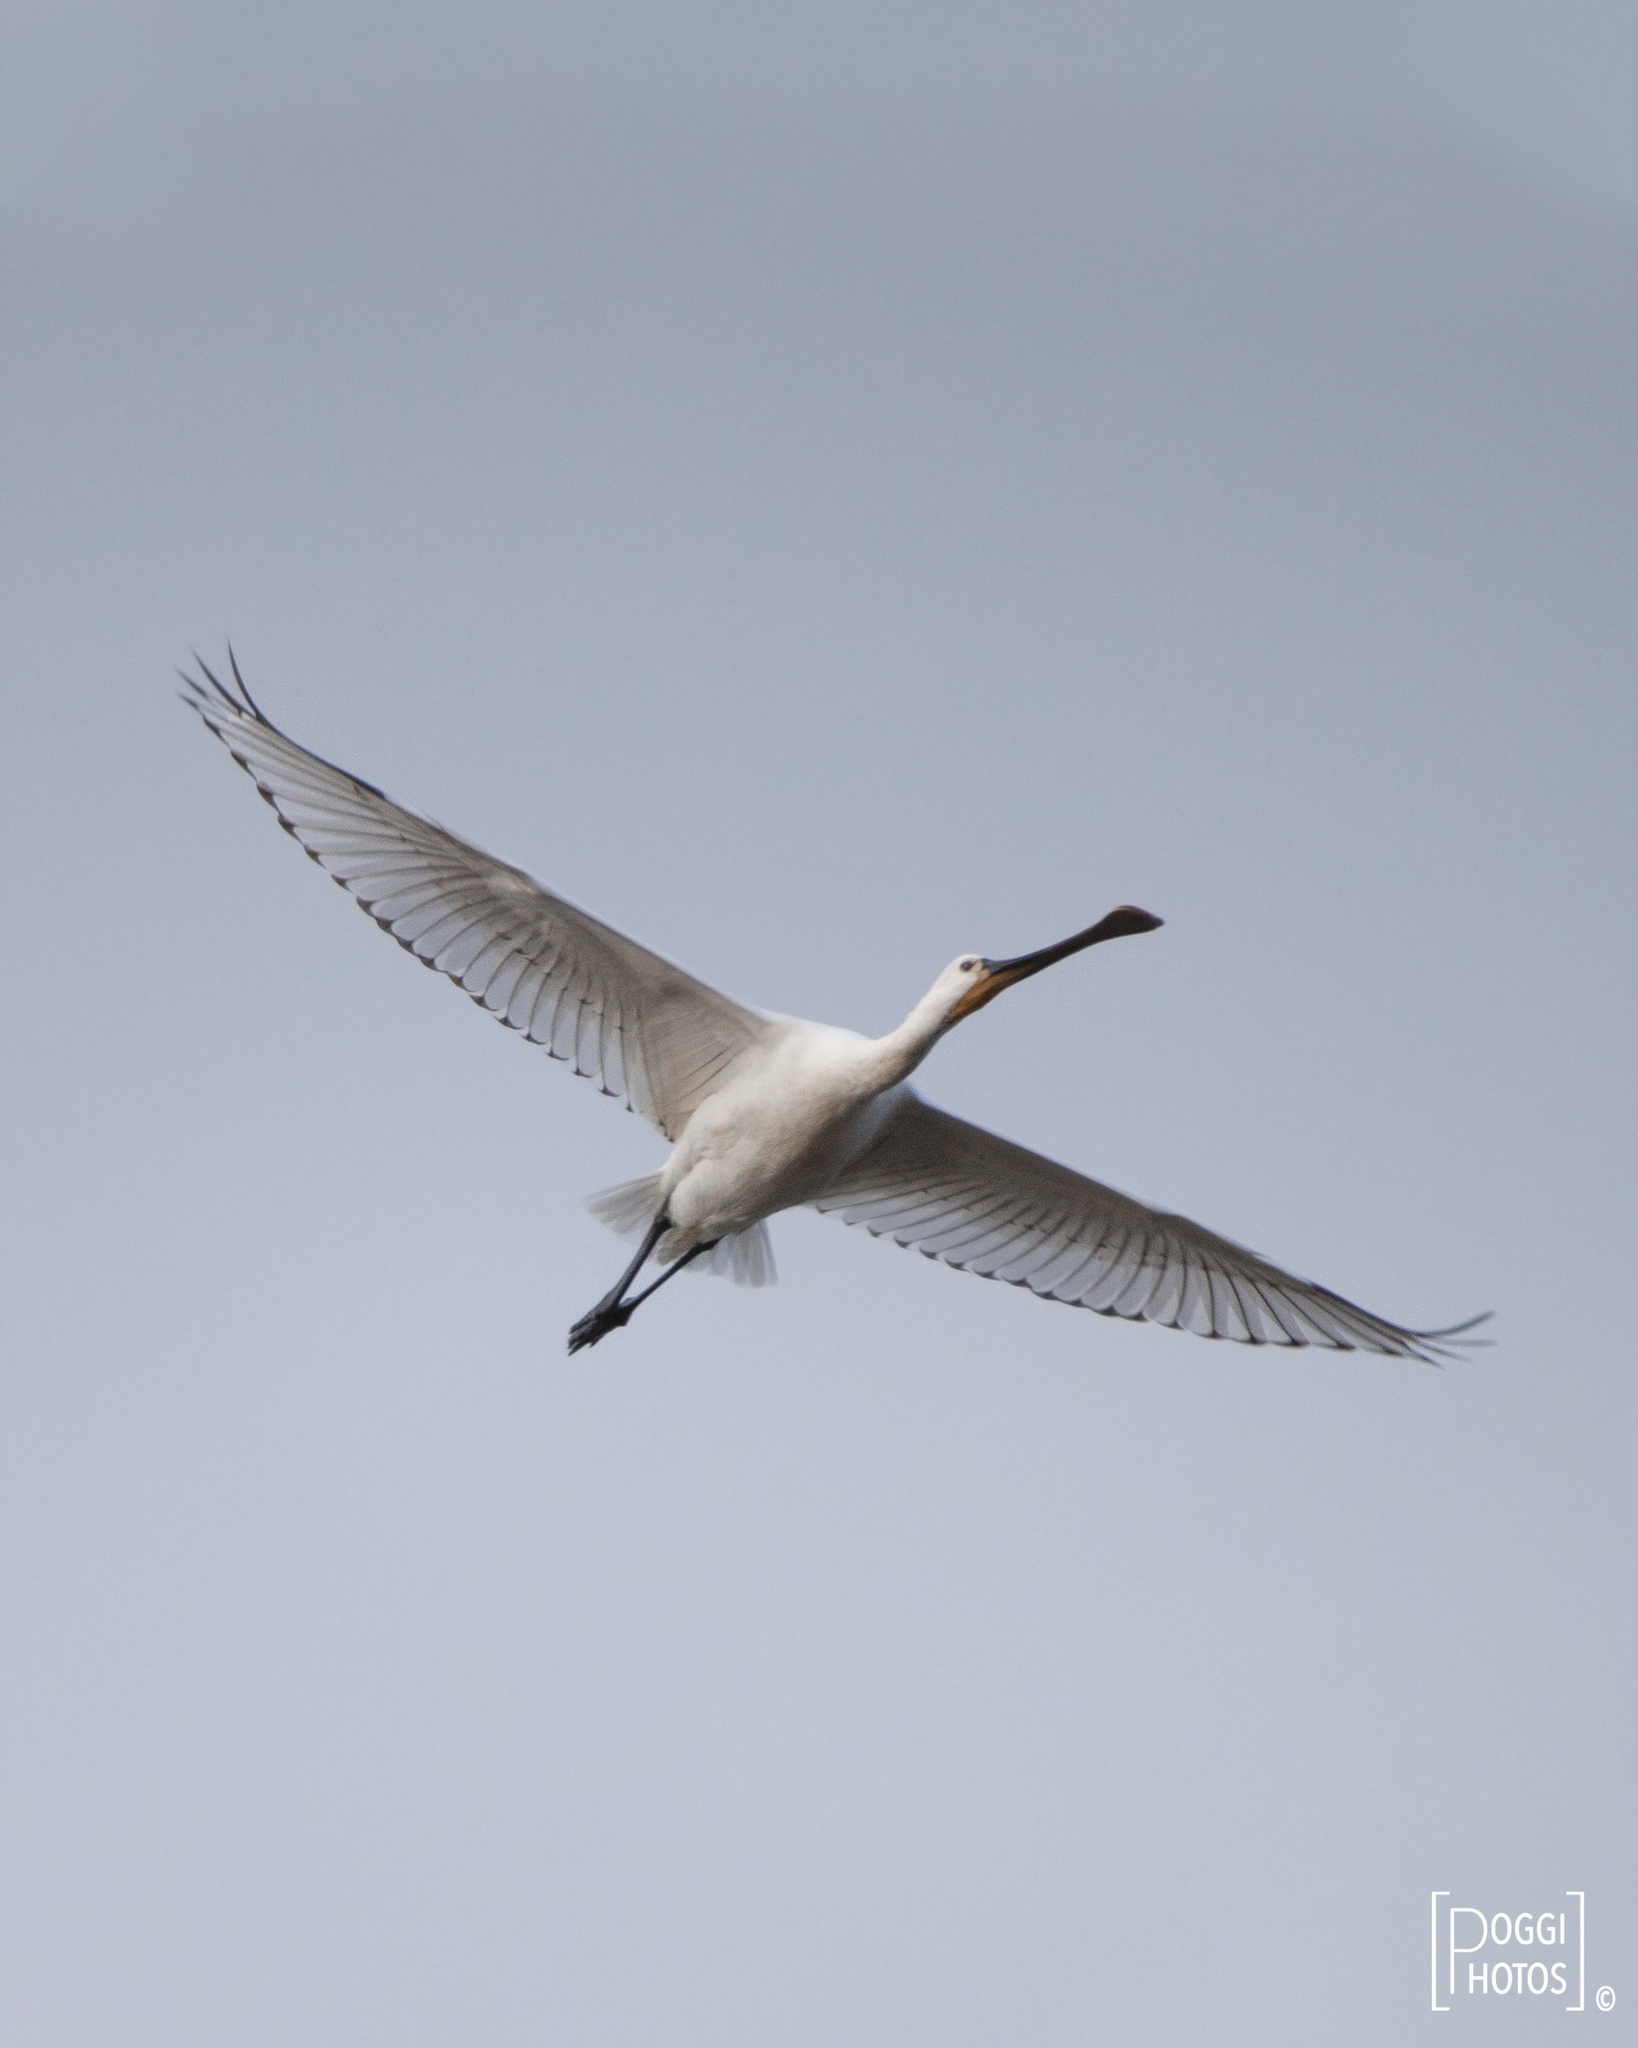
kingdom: Animalia
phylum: Chordata
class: Aves
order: Pelecaniformes
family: Threskiornithidae
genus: Platalea
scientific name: Platalea leucorodia
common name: Eurasian spoonbill
